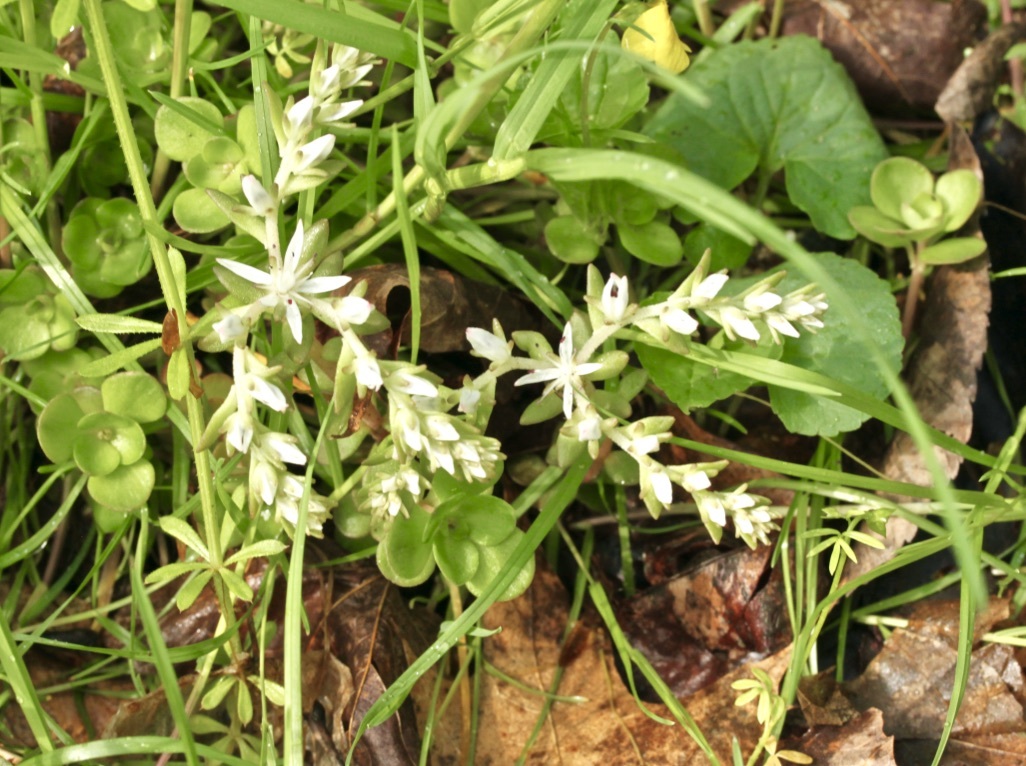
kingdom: Plantae
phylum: Tracheophyta
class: Magnoliopsida
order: Saxifragales
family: Crassulaceae
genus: Sedum
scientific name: Sedum ternatum
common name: Wild stonecrop
